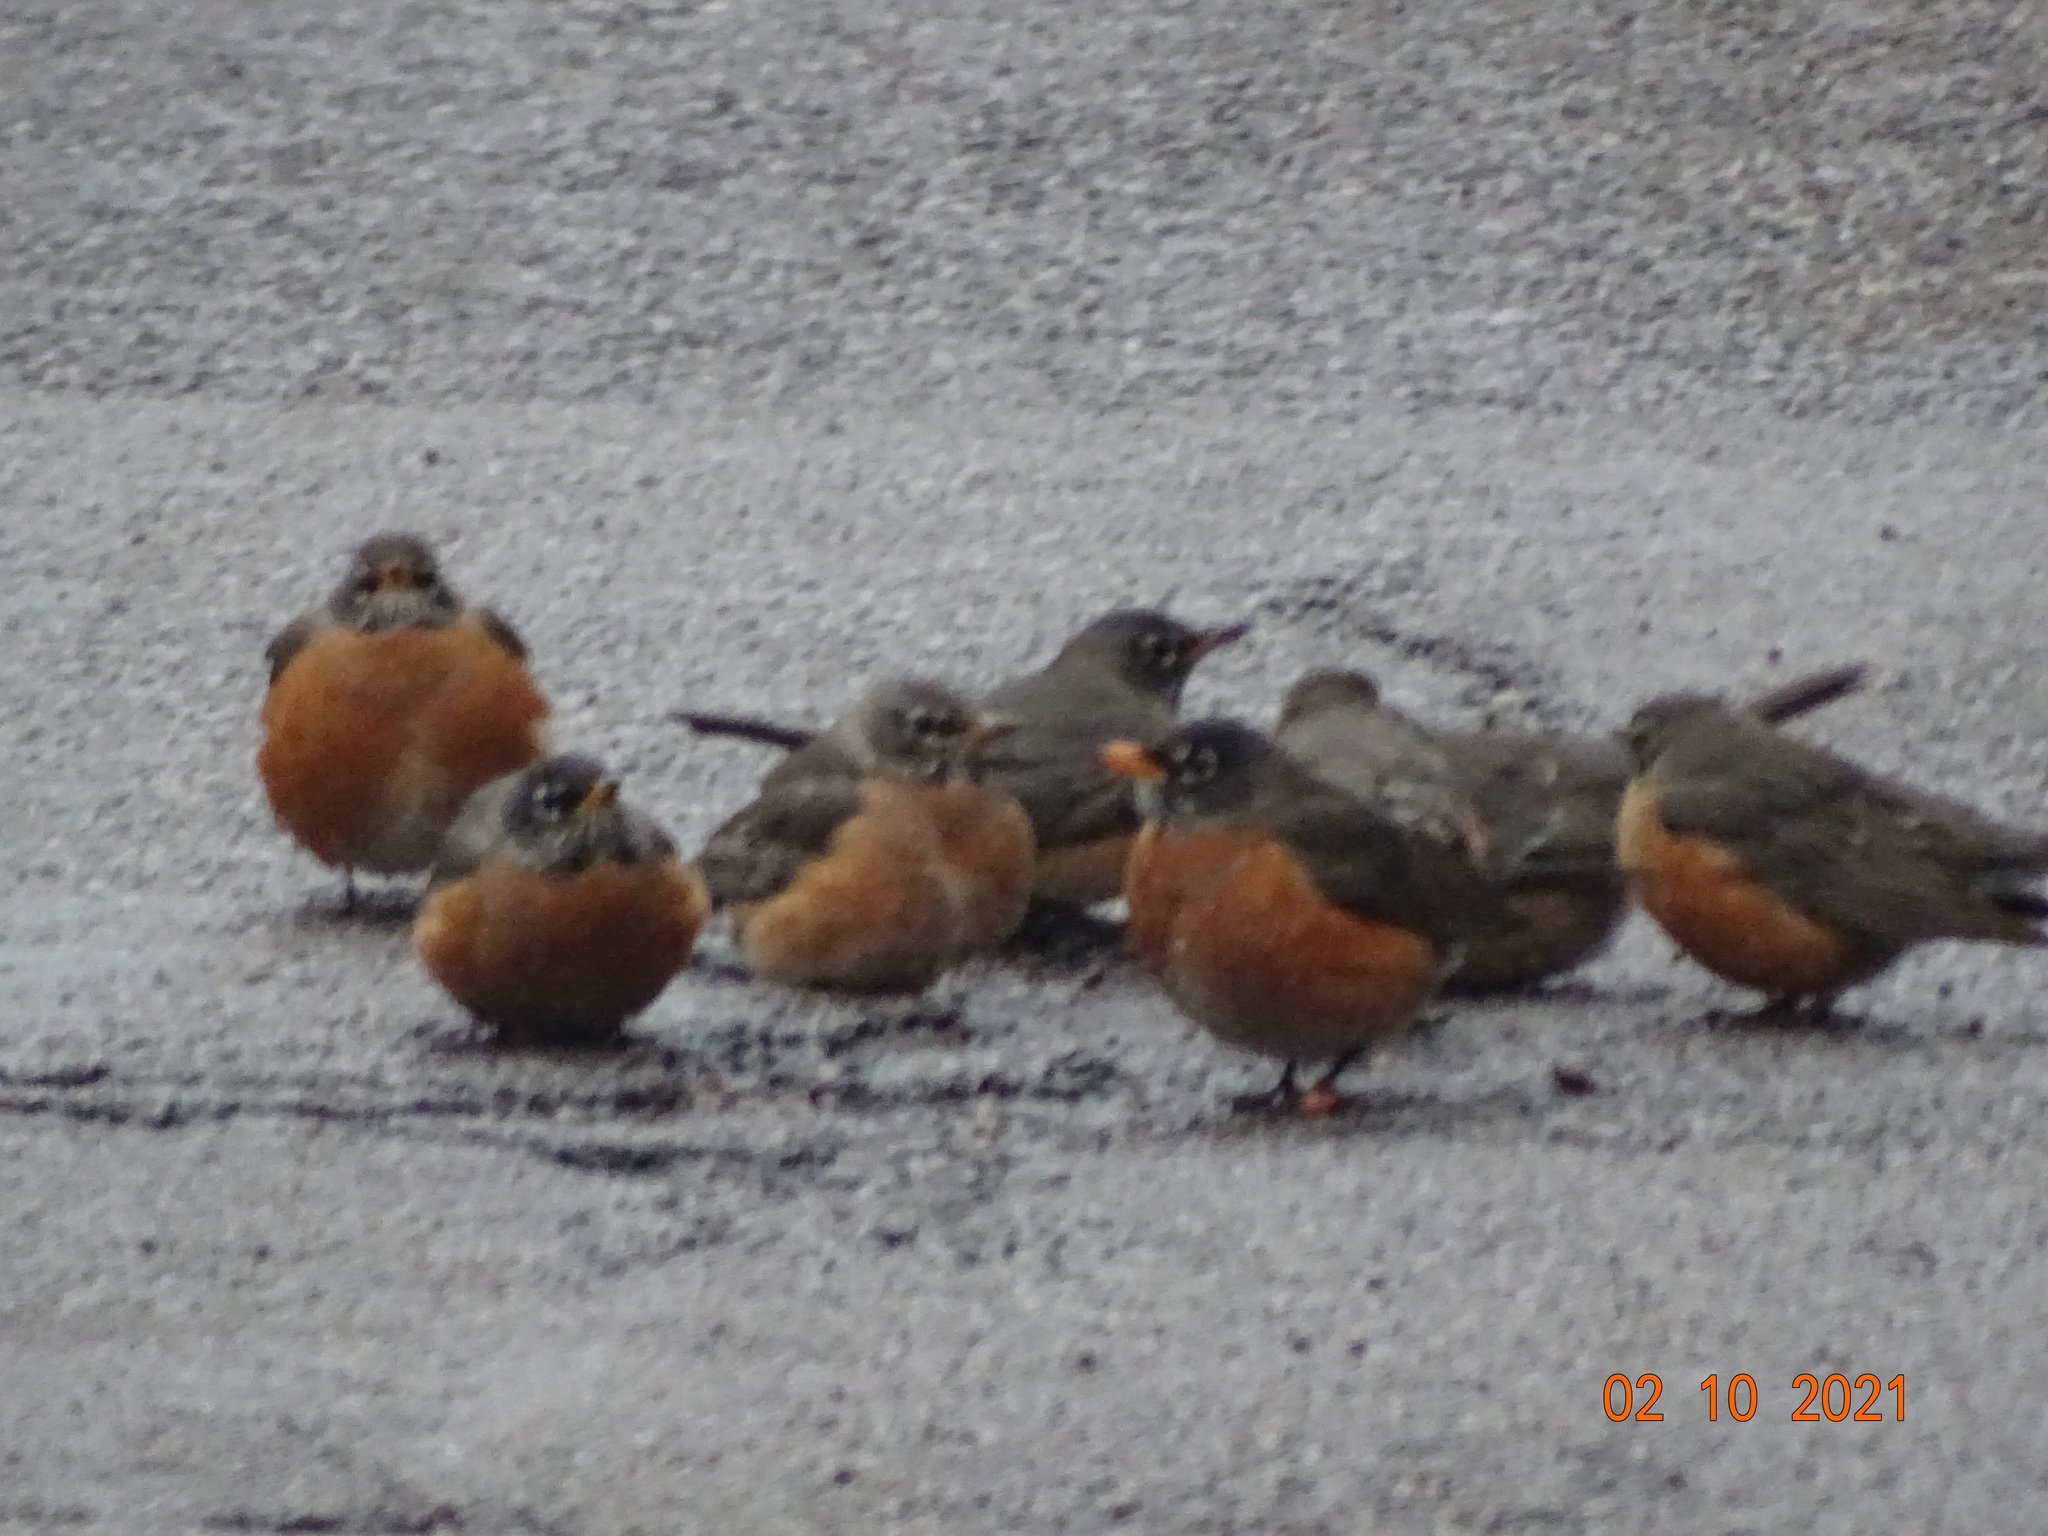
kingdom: Animalia
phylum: Chordata
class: Aves
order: Passeriformes
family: Turdidae
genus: Turdus
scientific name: Turdus migratorius
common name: American robin
